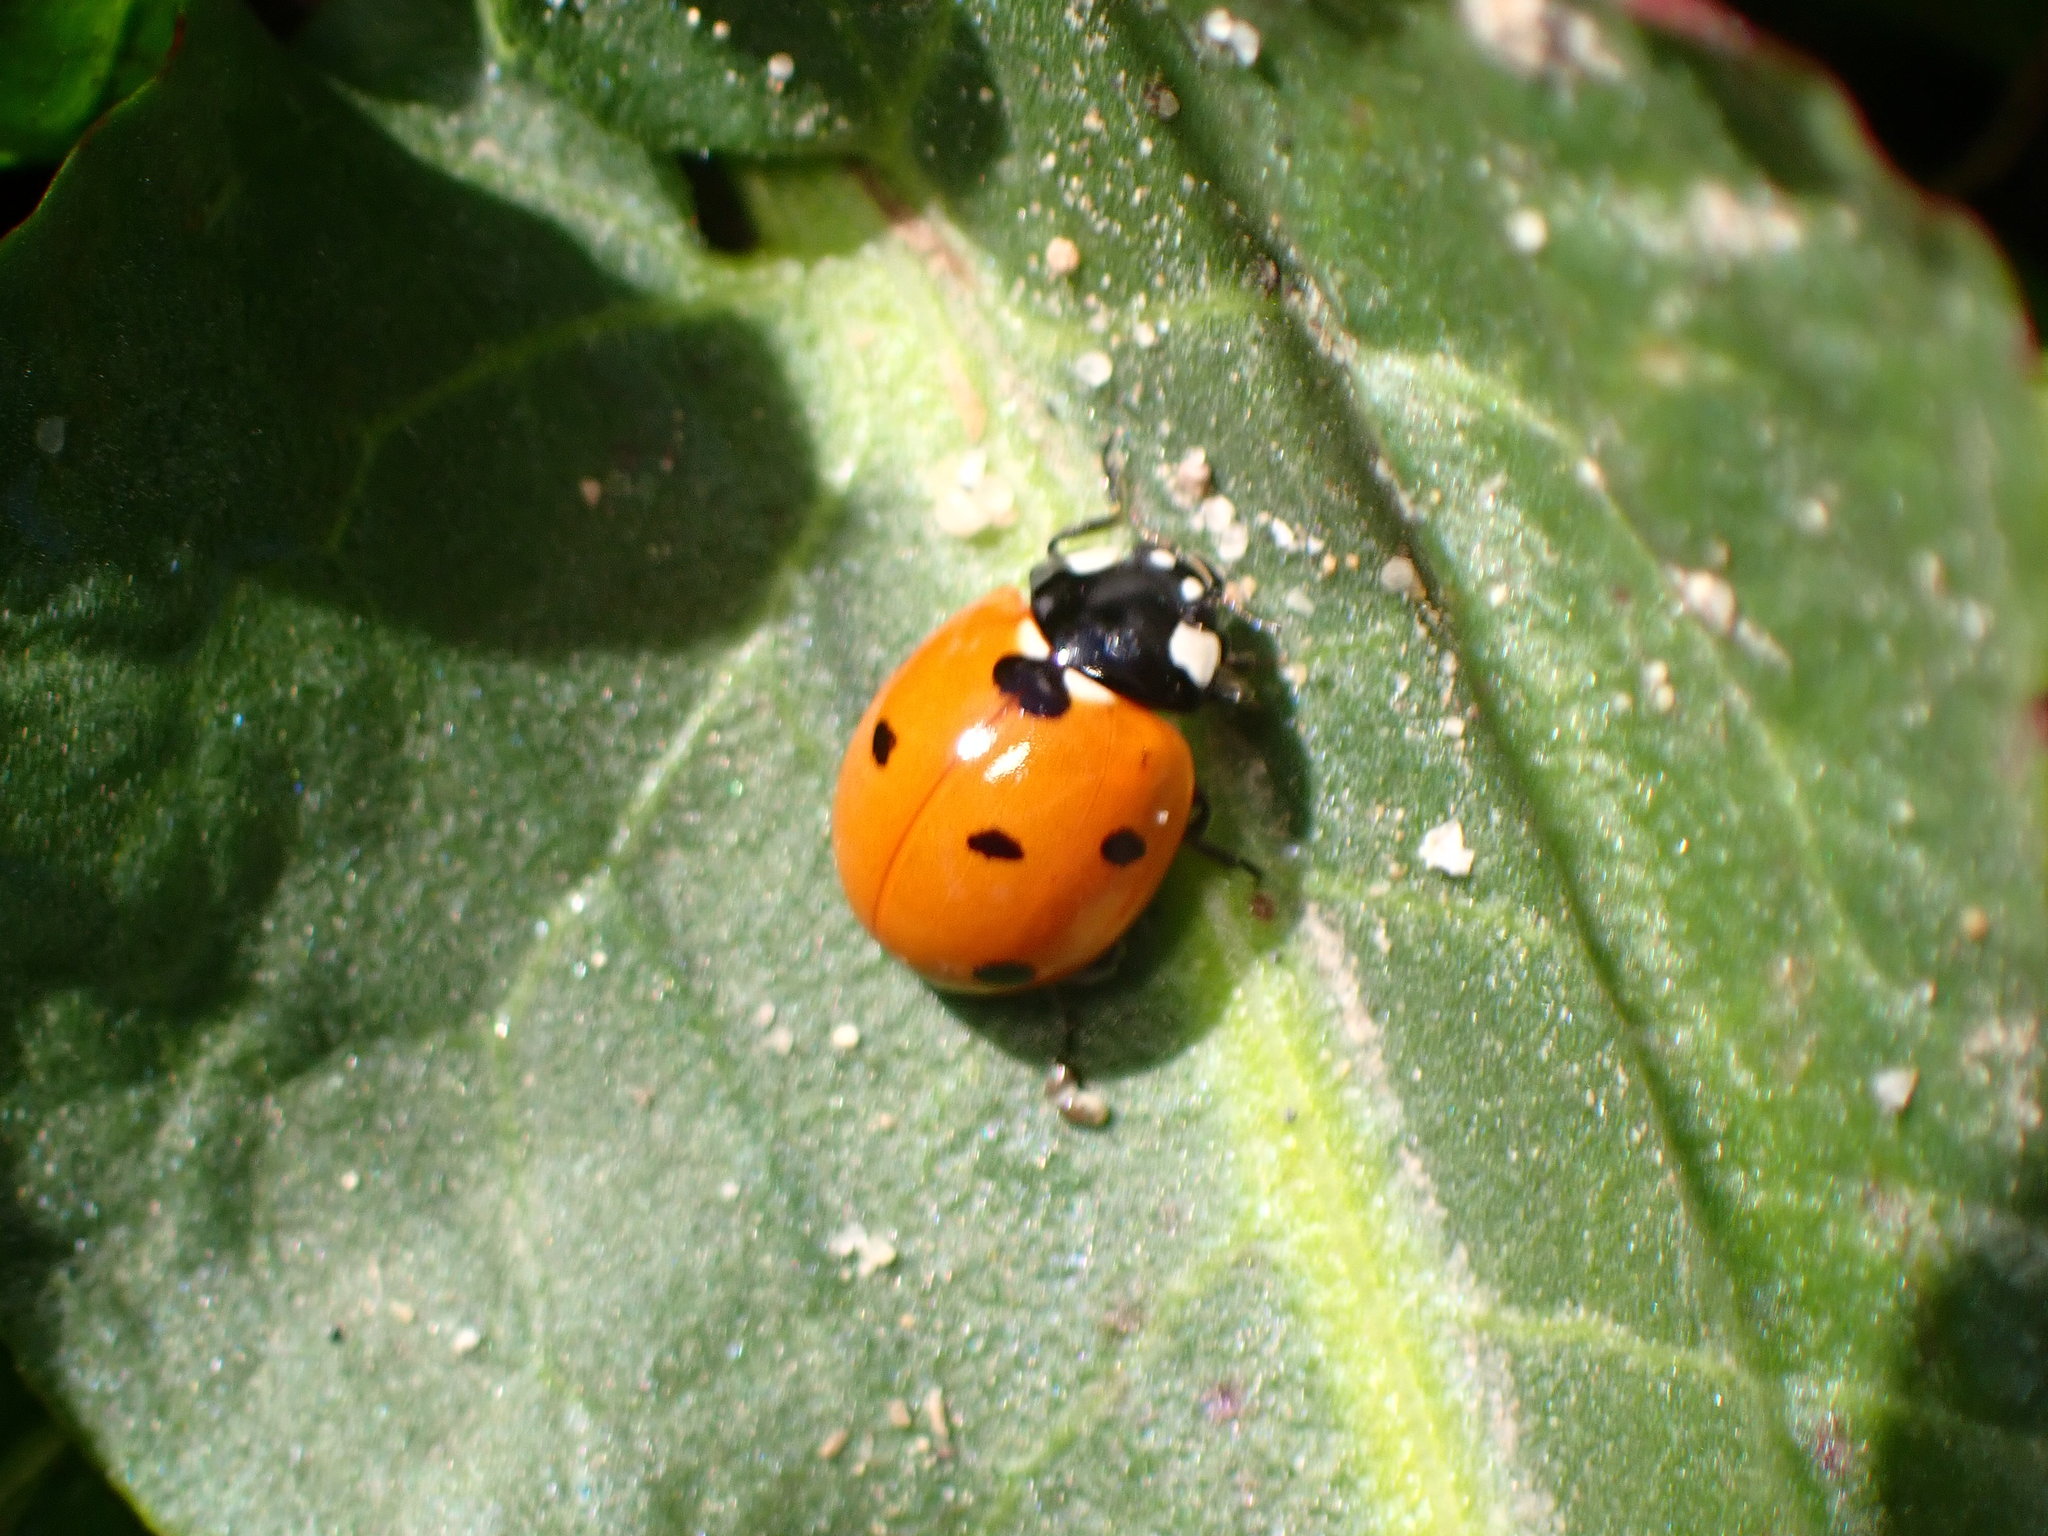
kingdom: Animalia
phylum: Arthropoda
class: Insecta
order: Coleoptera
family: Coccinellidae
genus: Coccinella
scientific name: Coccinella septempunctata
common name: Sevenspotted lady beetle
